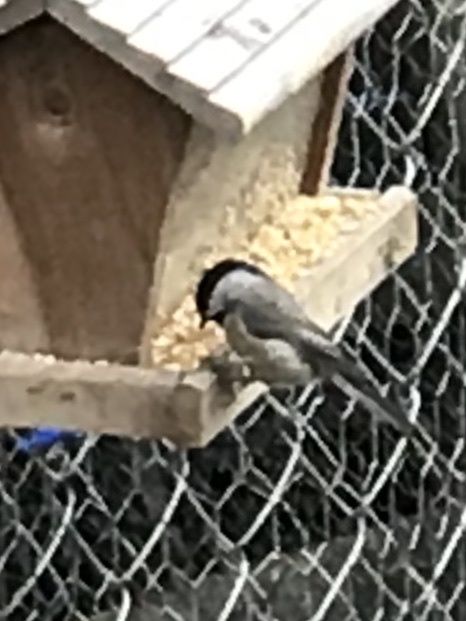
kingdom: Animalia
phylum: Chordata
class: Aves
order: Passeriformes
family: Paridae
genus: Poecile
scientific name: Poecile carolinensis
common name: Carolina chickadee
